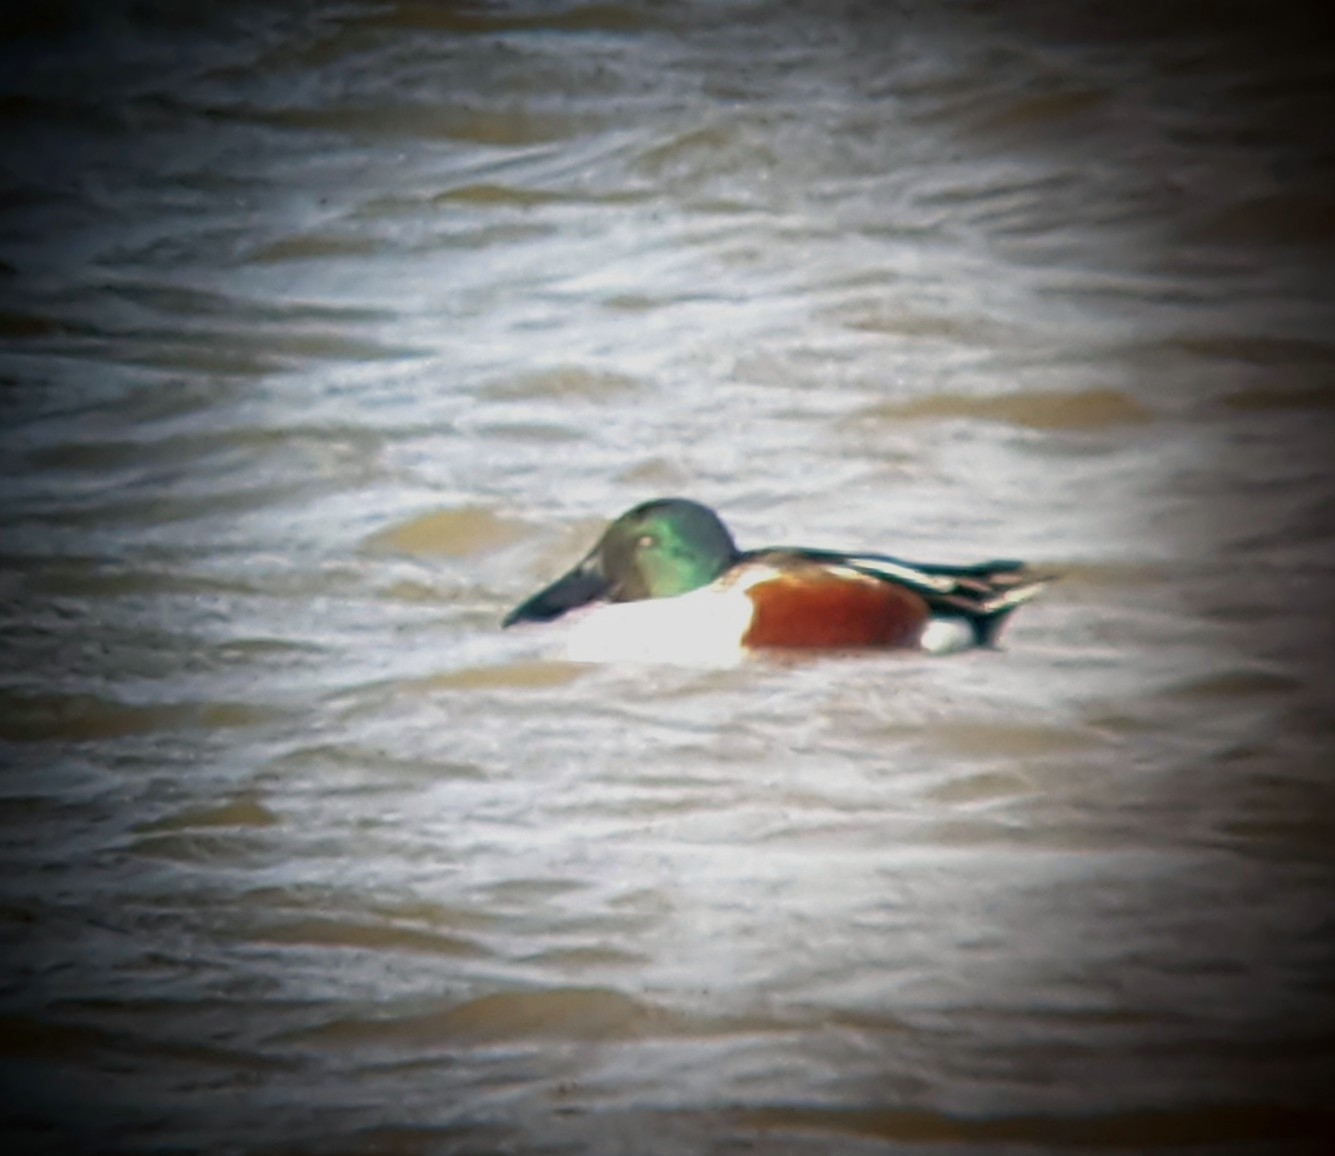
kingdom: Animalia
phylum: Chordata
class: Aves
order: Anseriformes
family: Anatidae
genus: Spatula
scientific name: Spatula clypeata
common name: Northern shoveler
